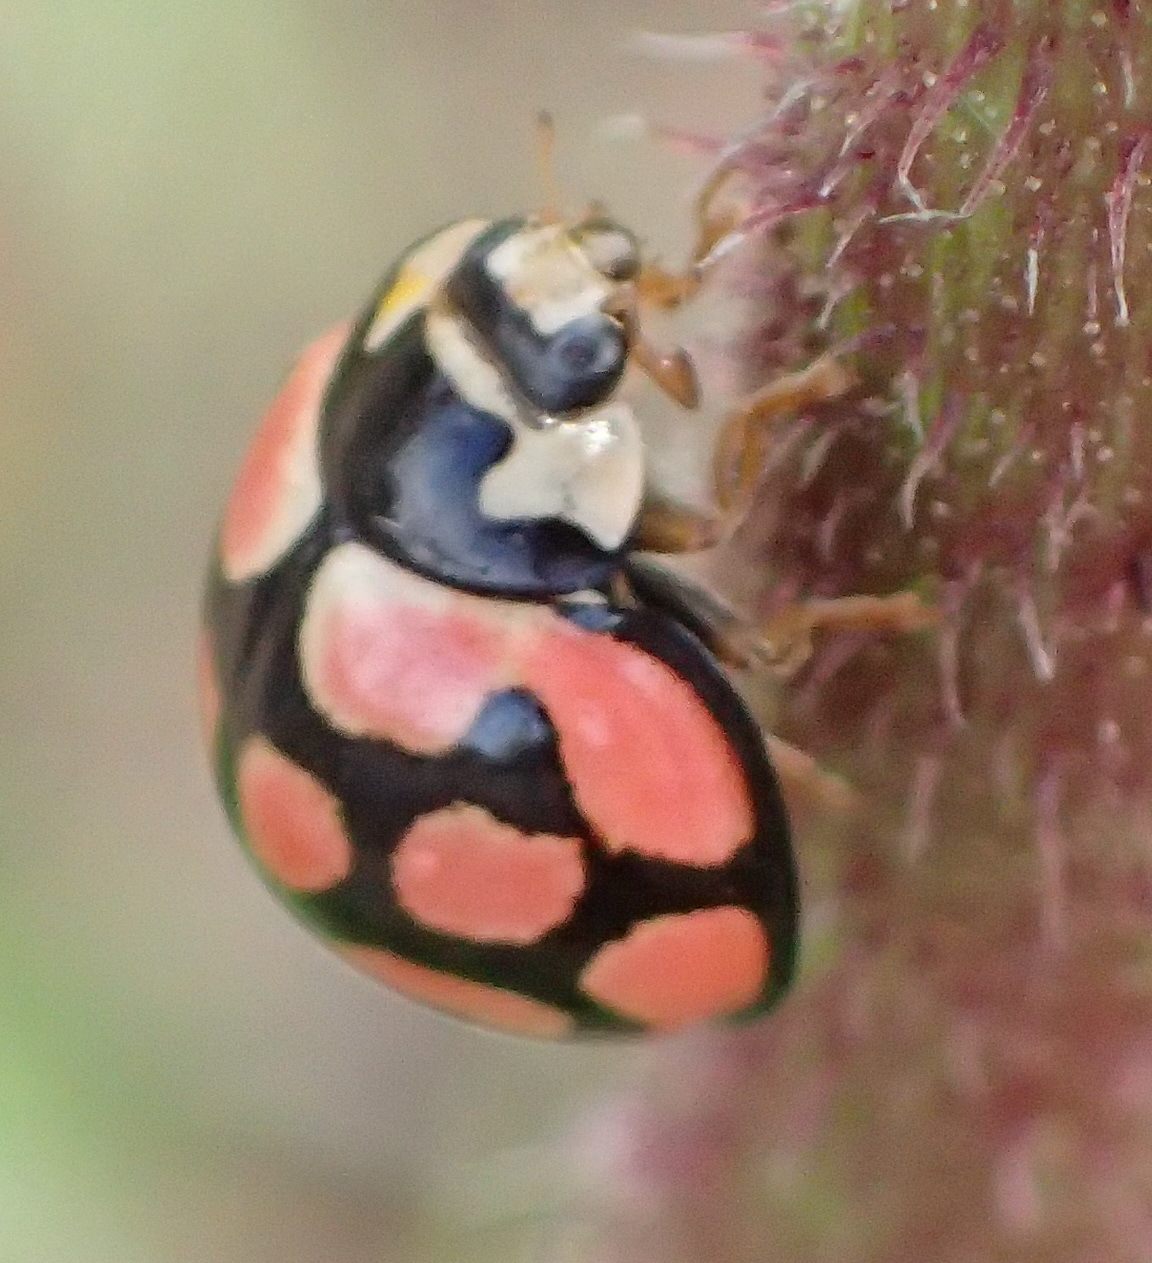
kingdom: Animalia
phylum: Arthropoda
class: Insecta
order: Coleoptera
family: Coccinellidae
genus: Cheilomenes
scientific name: Cheilomenes lunata
